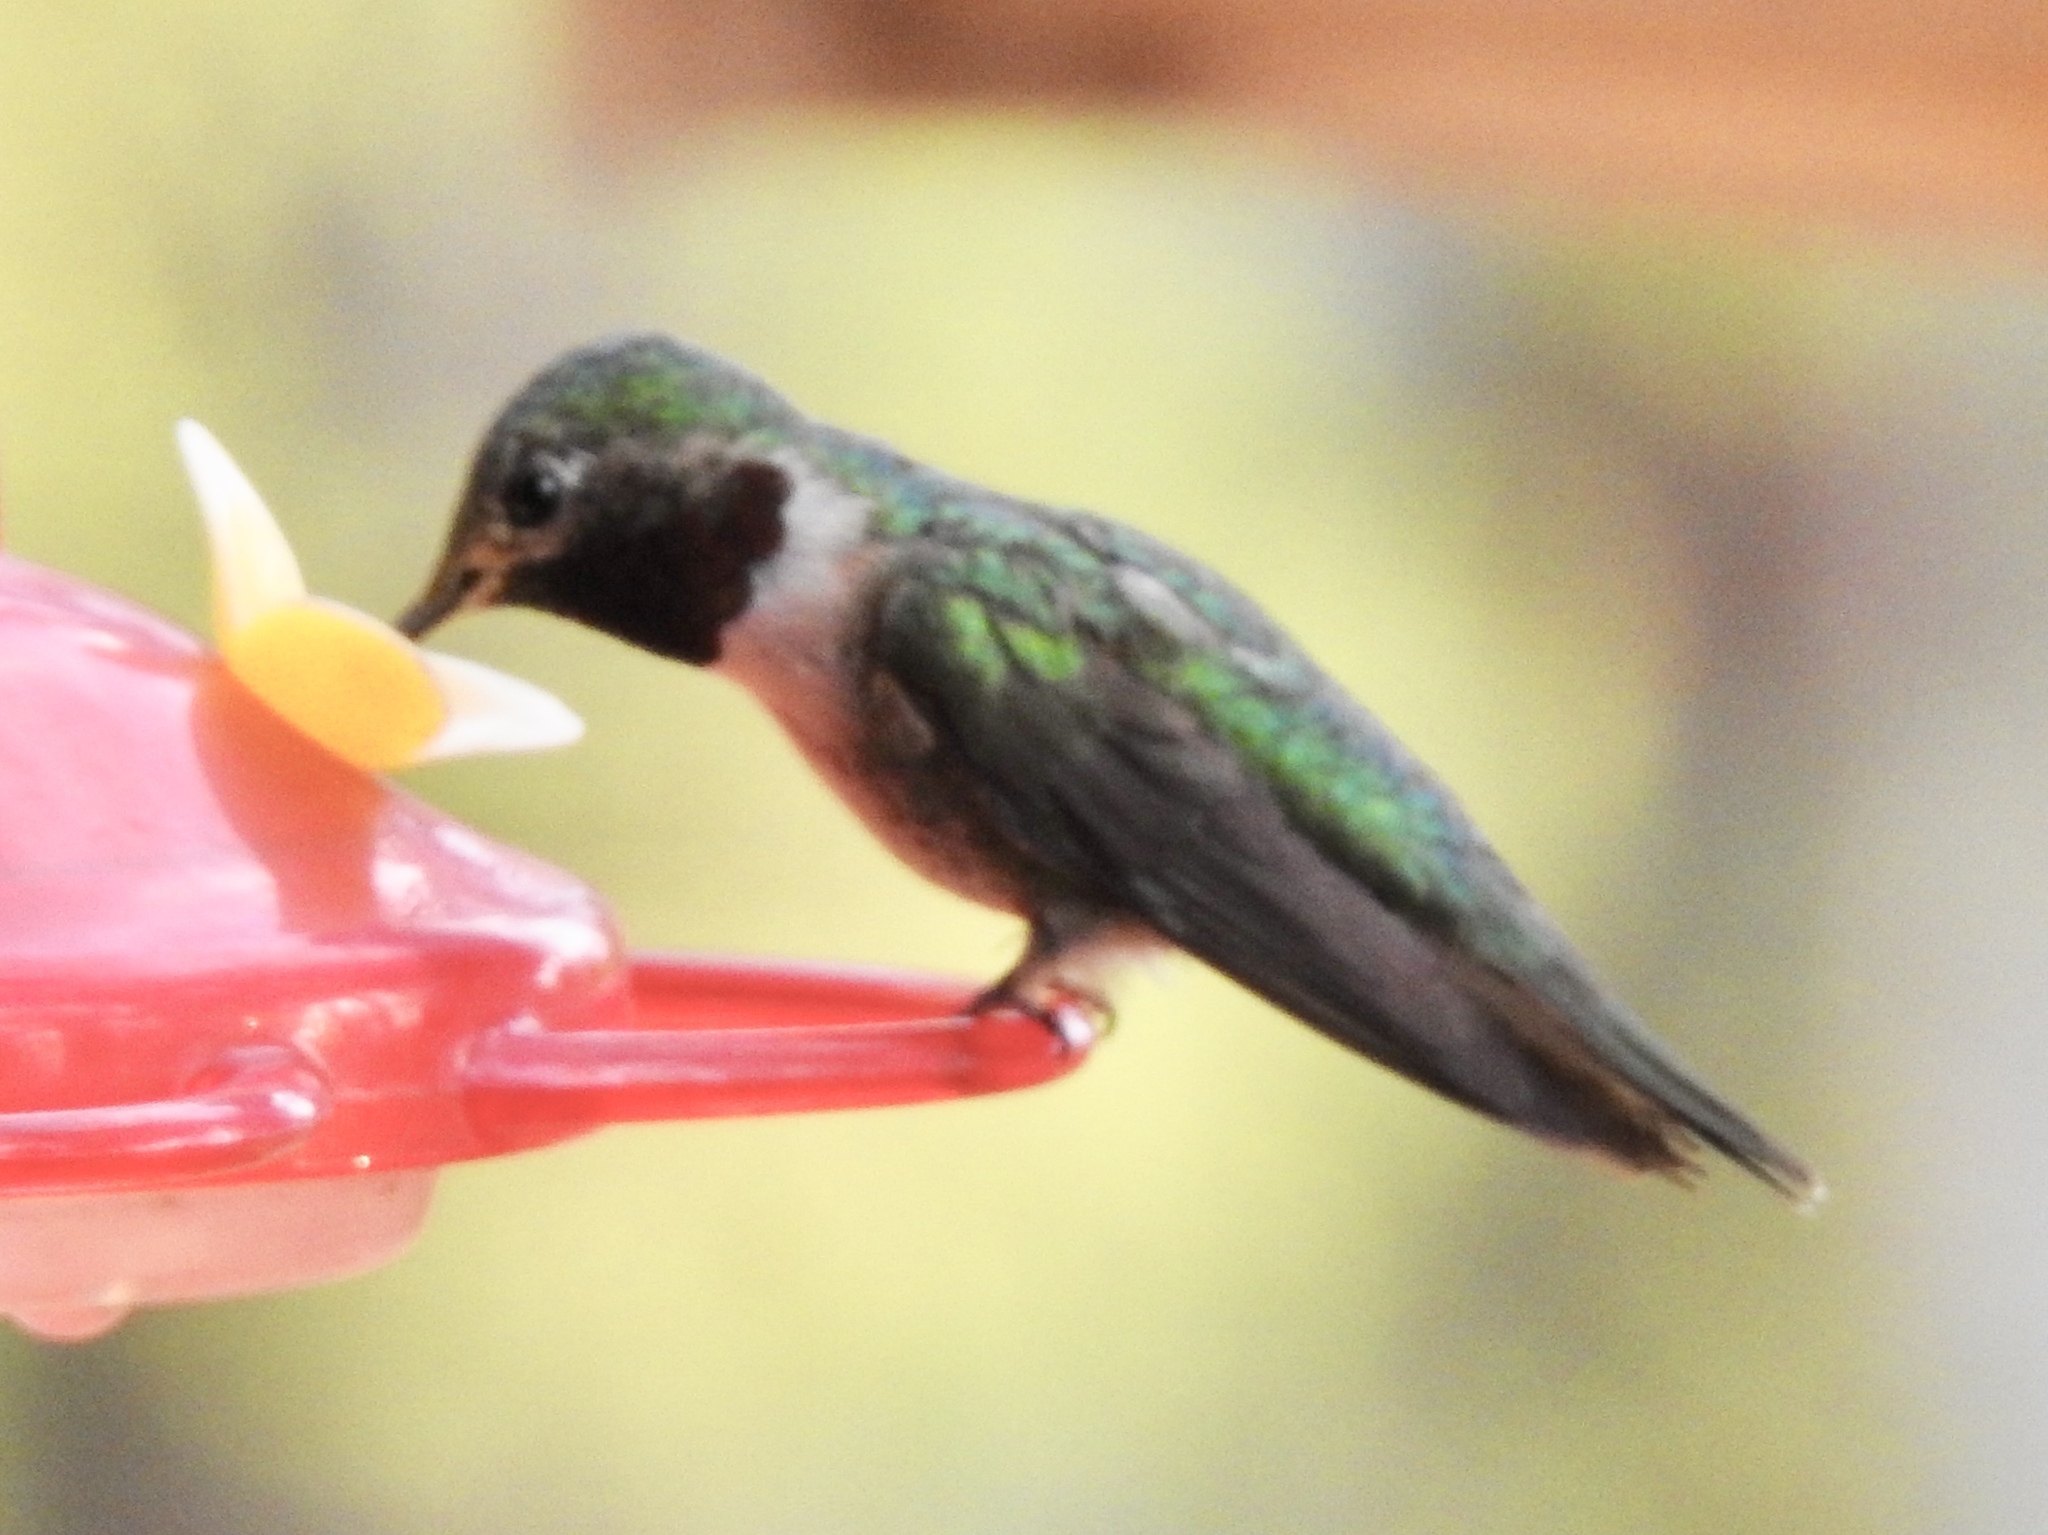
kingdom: Animalia
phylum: Chordata
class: Aves
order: Apodiformes
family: Trochilidae
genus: Selasphorus
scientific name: Selasphorus platycercus
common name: Broad-tailed hummingbird
